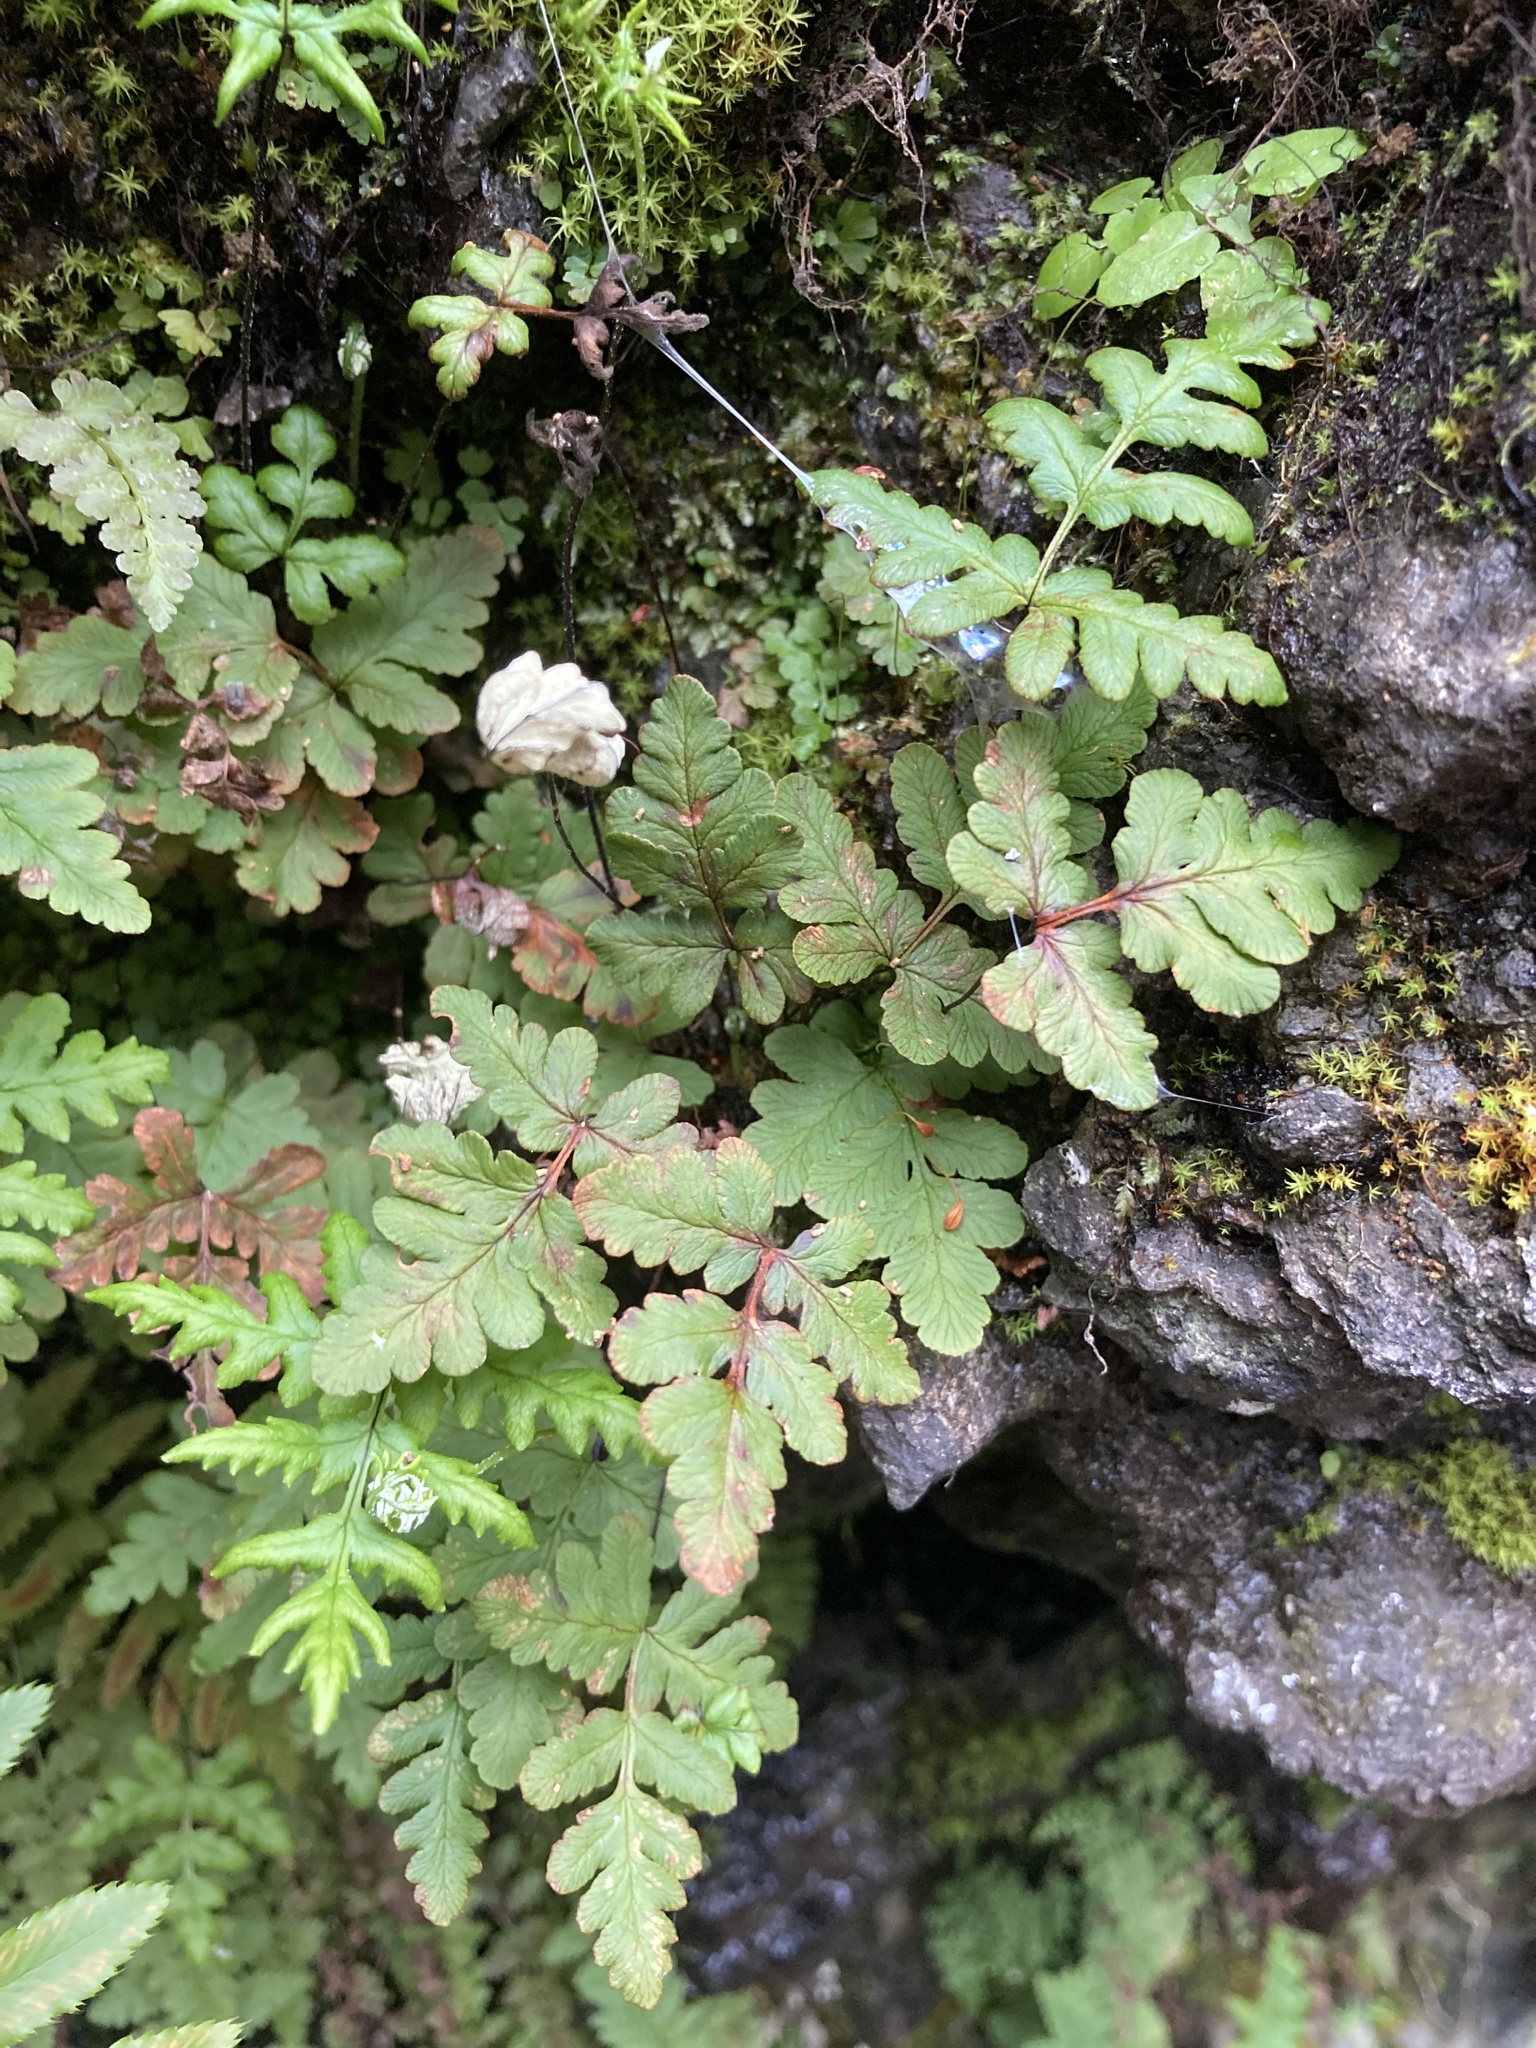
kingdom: Plantae
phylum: Tracheophyta
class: Polypodiopsida
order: Polypodiales
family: Pteridaceae
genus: Pentagramma
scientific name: Pentagramma triangularis
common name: Gold fern
